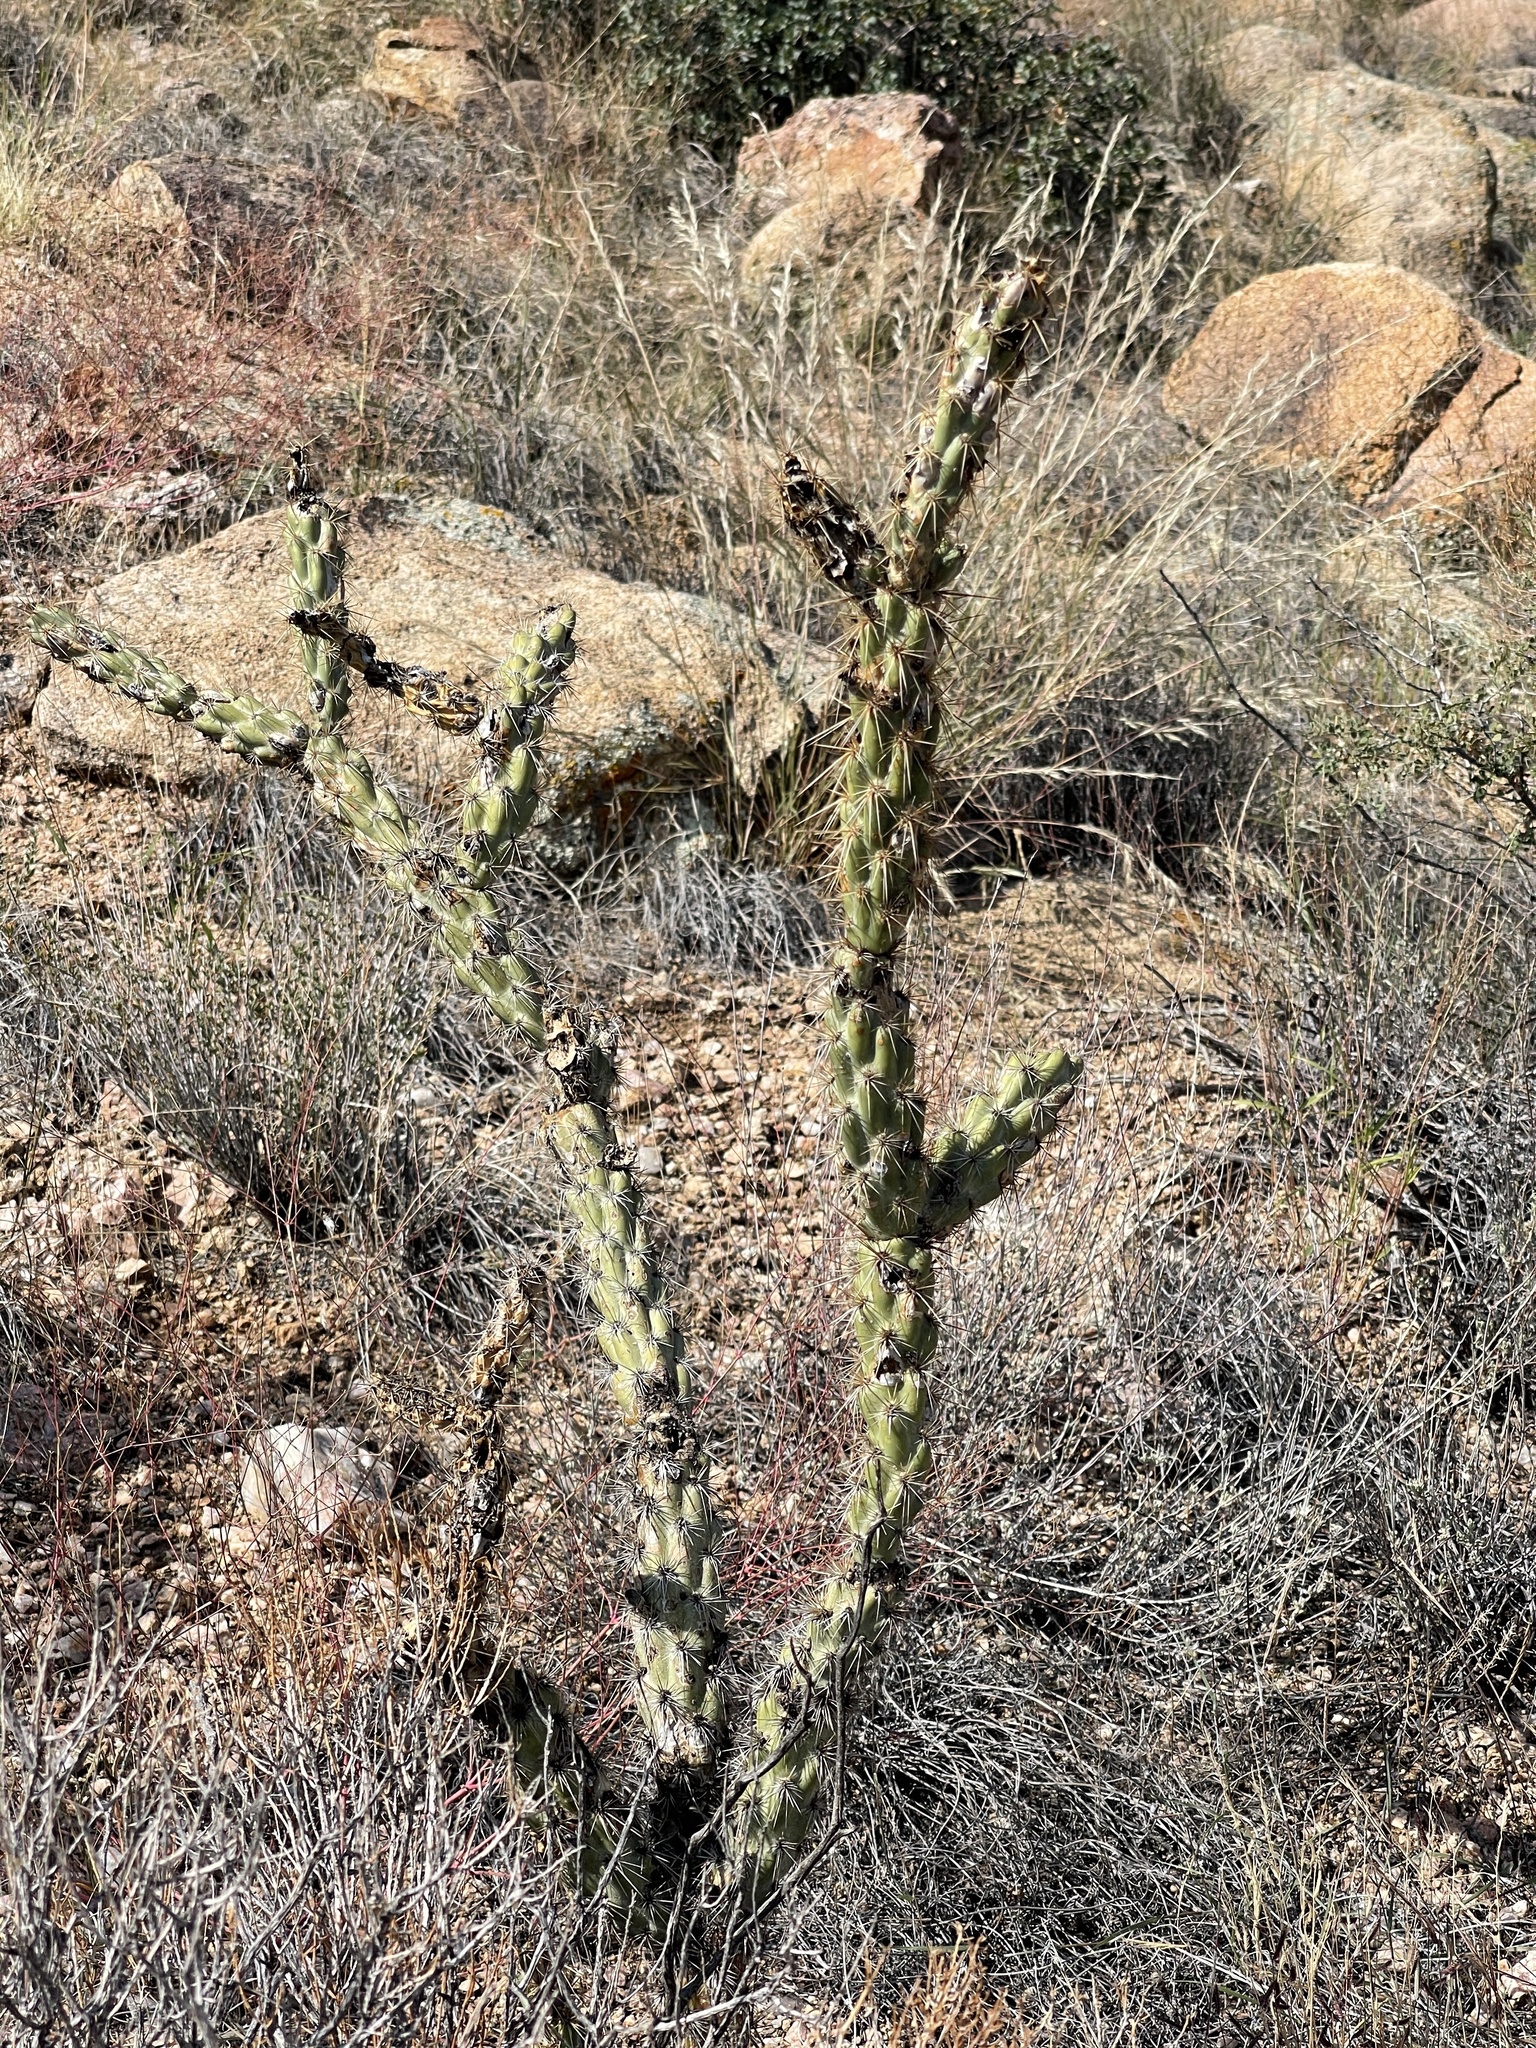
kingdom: Plantae
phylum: Tracheophyta
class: Magnoliopsida
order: Caryophyllales
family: Cactaceae
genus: Cylindropuntia
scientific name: Cylindropuntia acanthocarpa
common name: Buckhorn cholla
